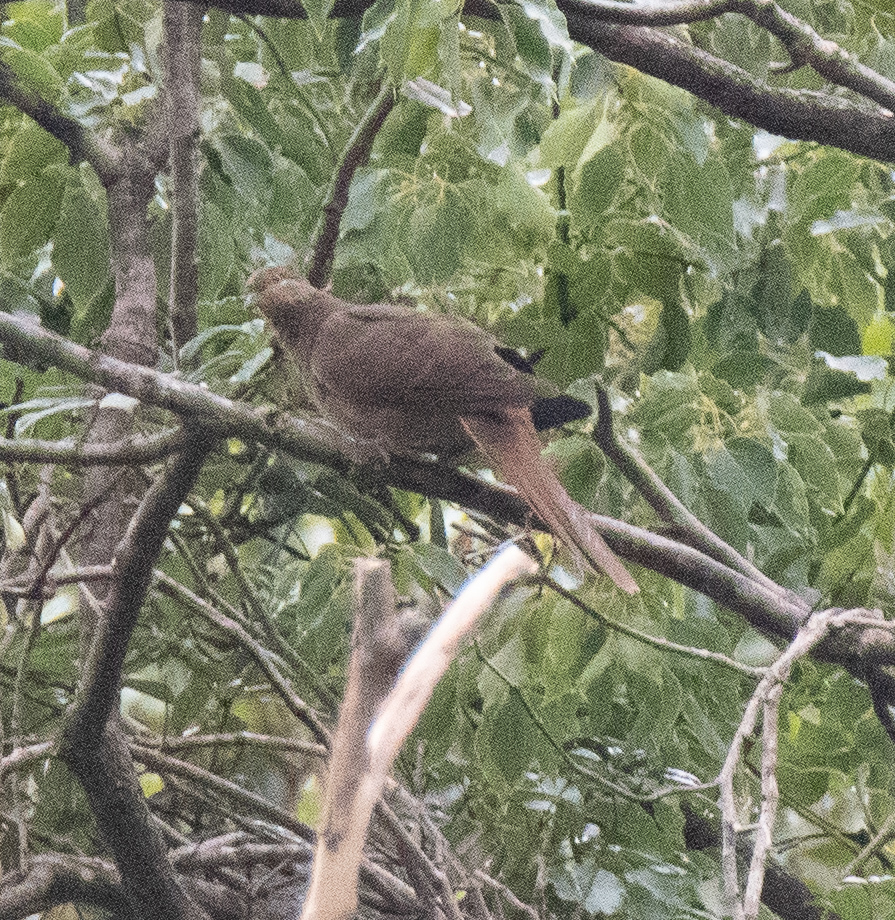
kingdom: Animalia
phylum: Chordata
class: Aves
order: Columbiformes
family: Columbidae
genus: Macropygia
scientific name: Macropygia phasianella
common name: Brown cuckoo-dove
